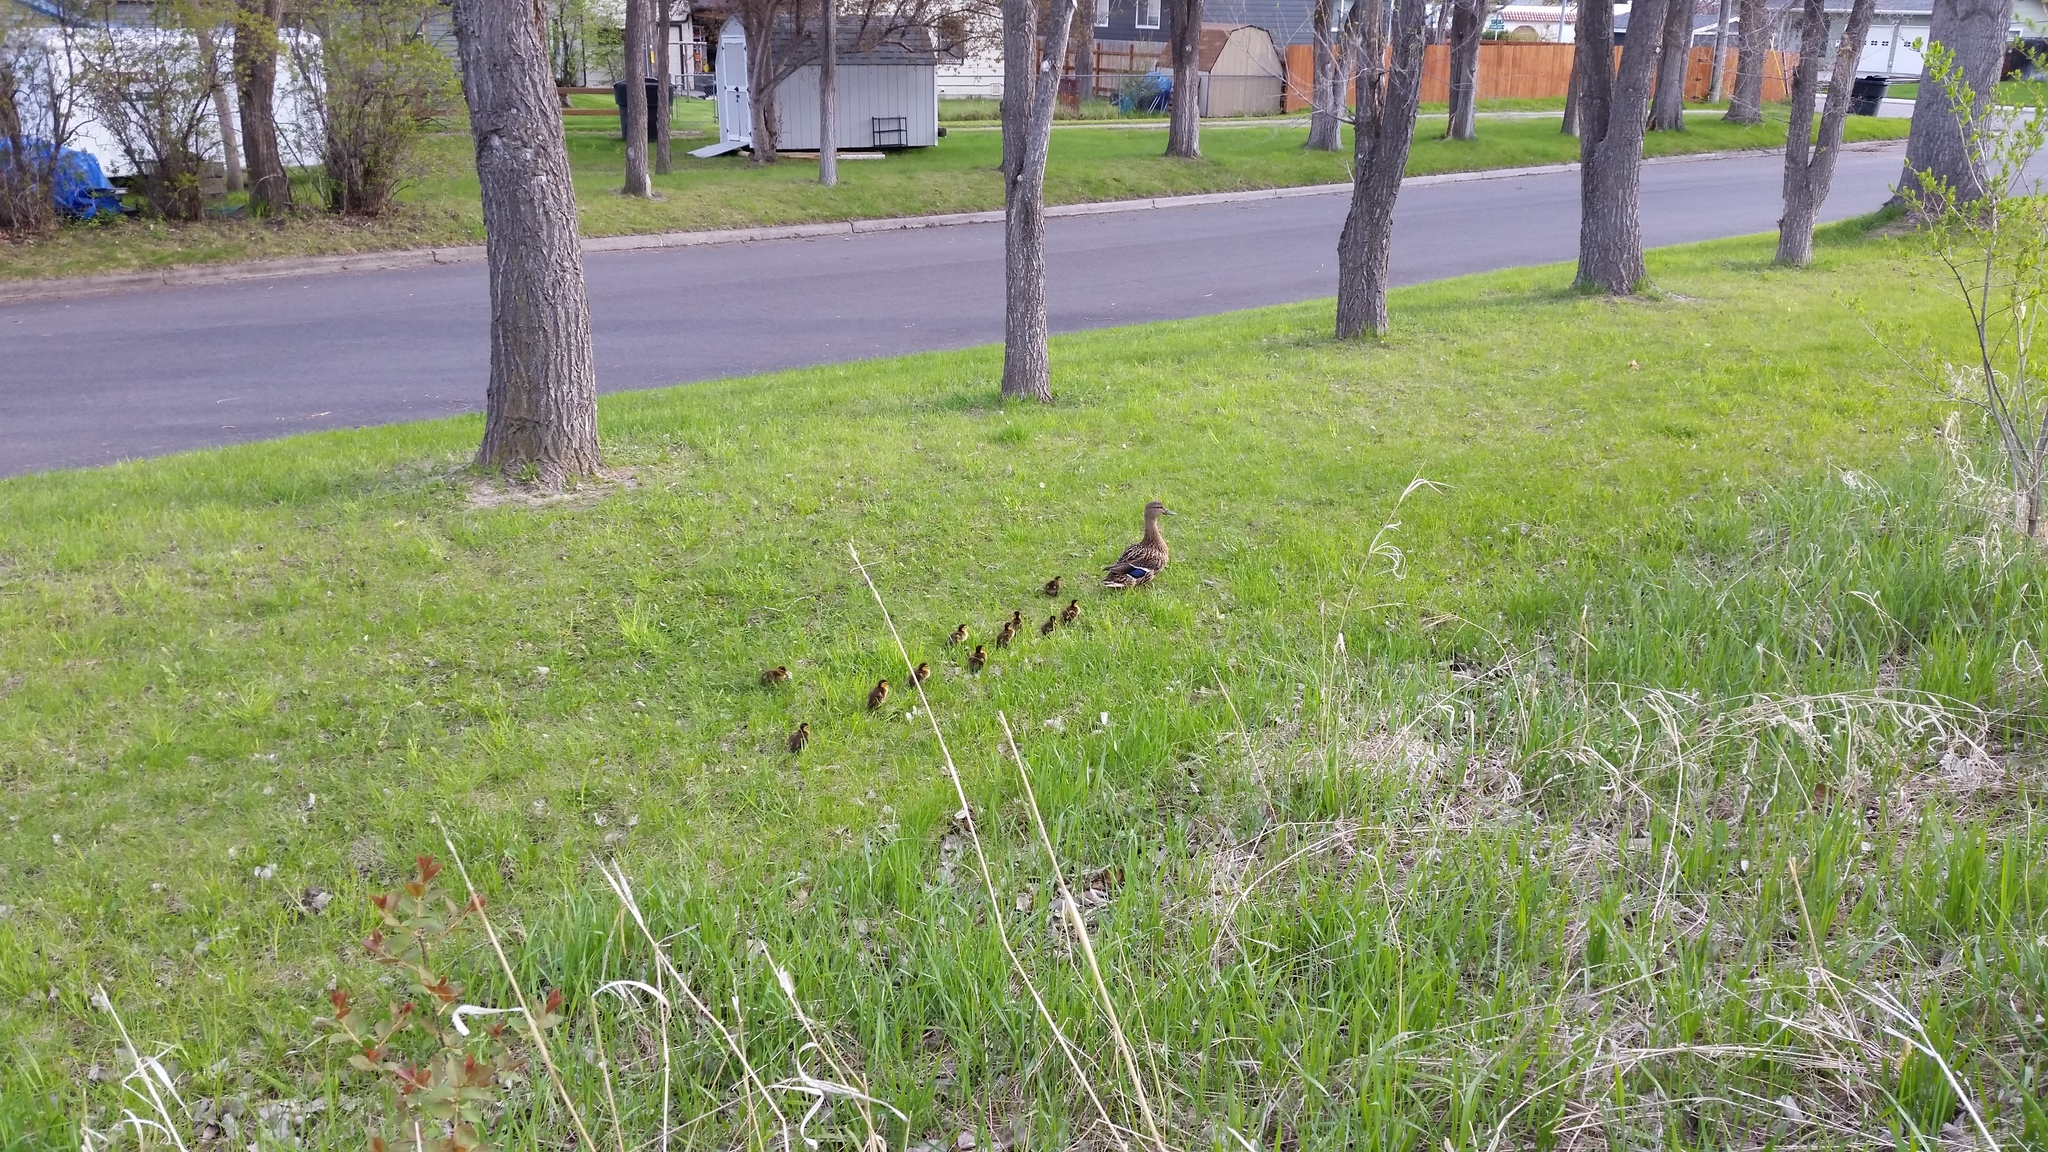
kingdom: Animalia
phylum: Chordata
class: Aves
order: Anseriformes
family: Anatidae
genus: Anas
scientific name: Anas platyrhynchos
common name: Mallard
